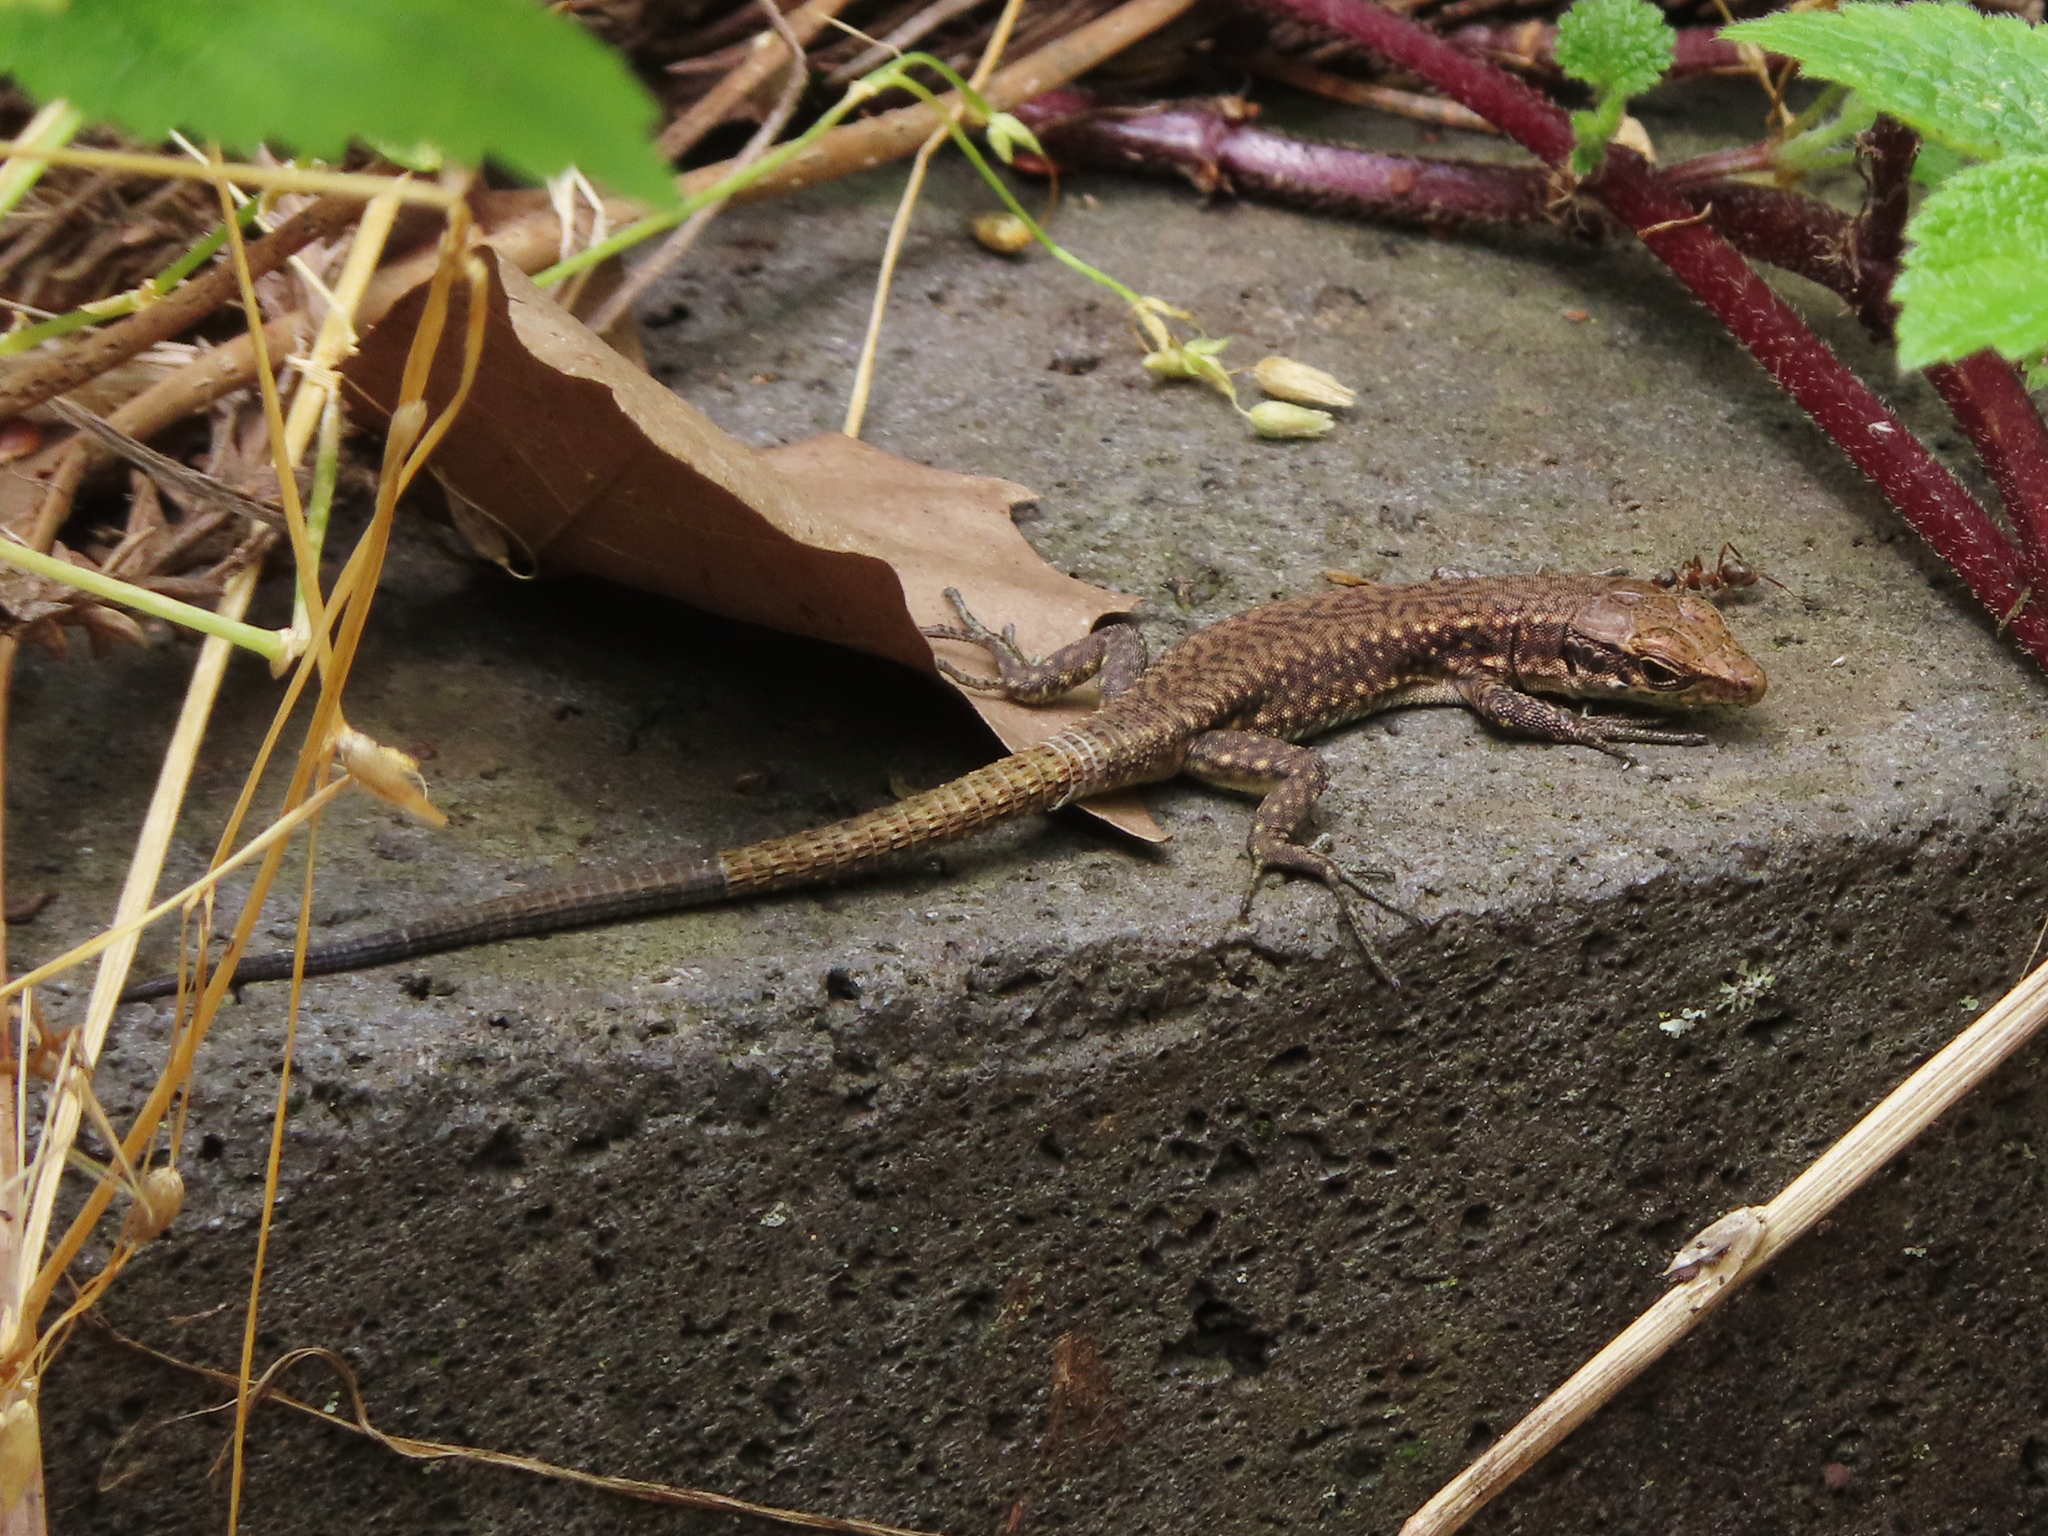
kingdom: Animalia
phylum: Chordata
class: Squamata
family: Lacertidae
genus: Darevskia
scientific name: Darevskia mixta
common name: Ajarian lizard
